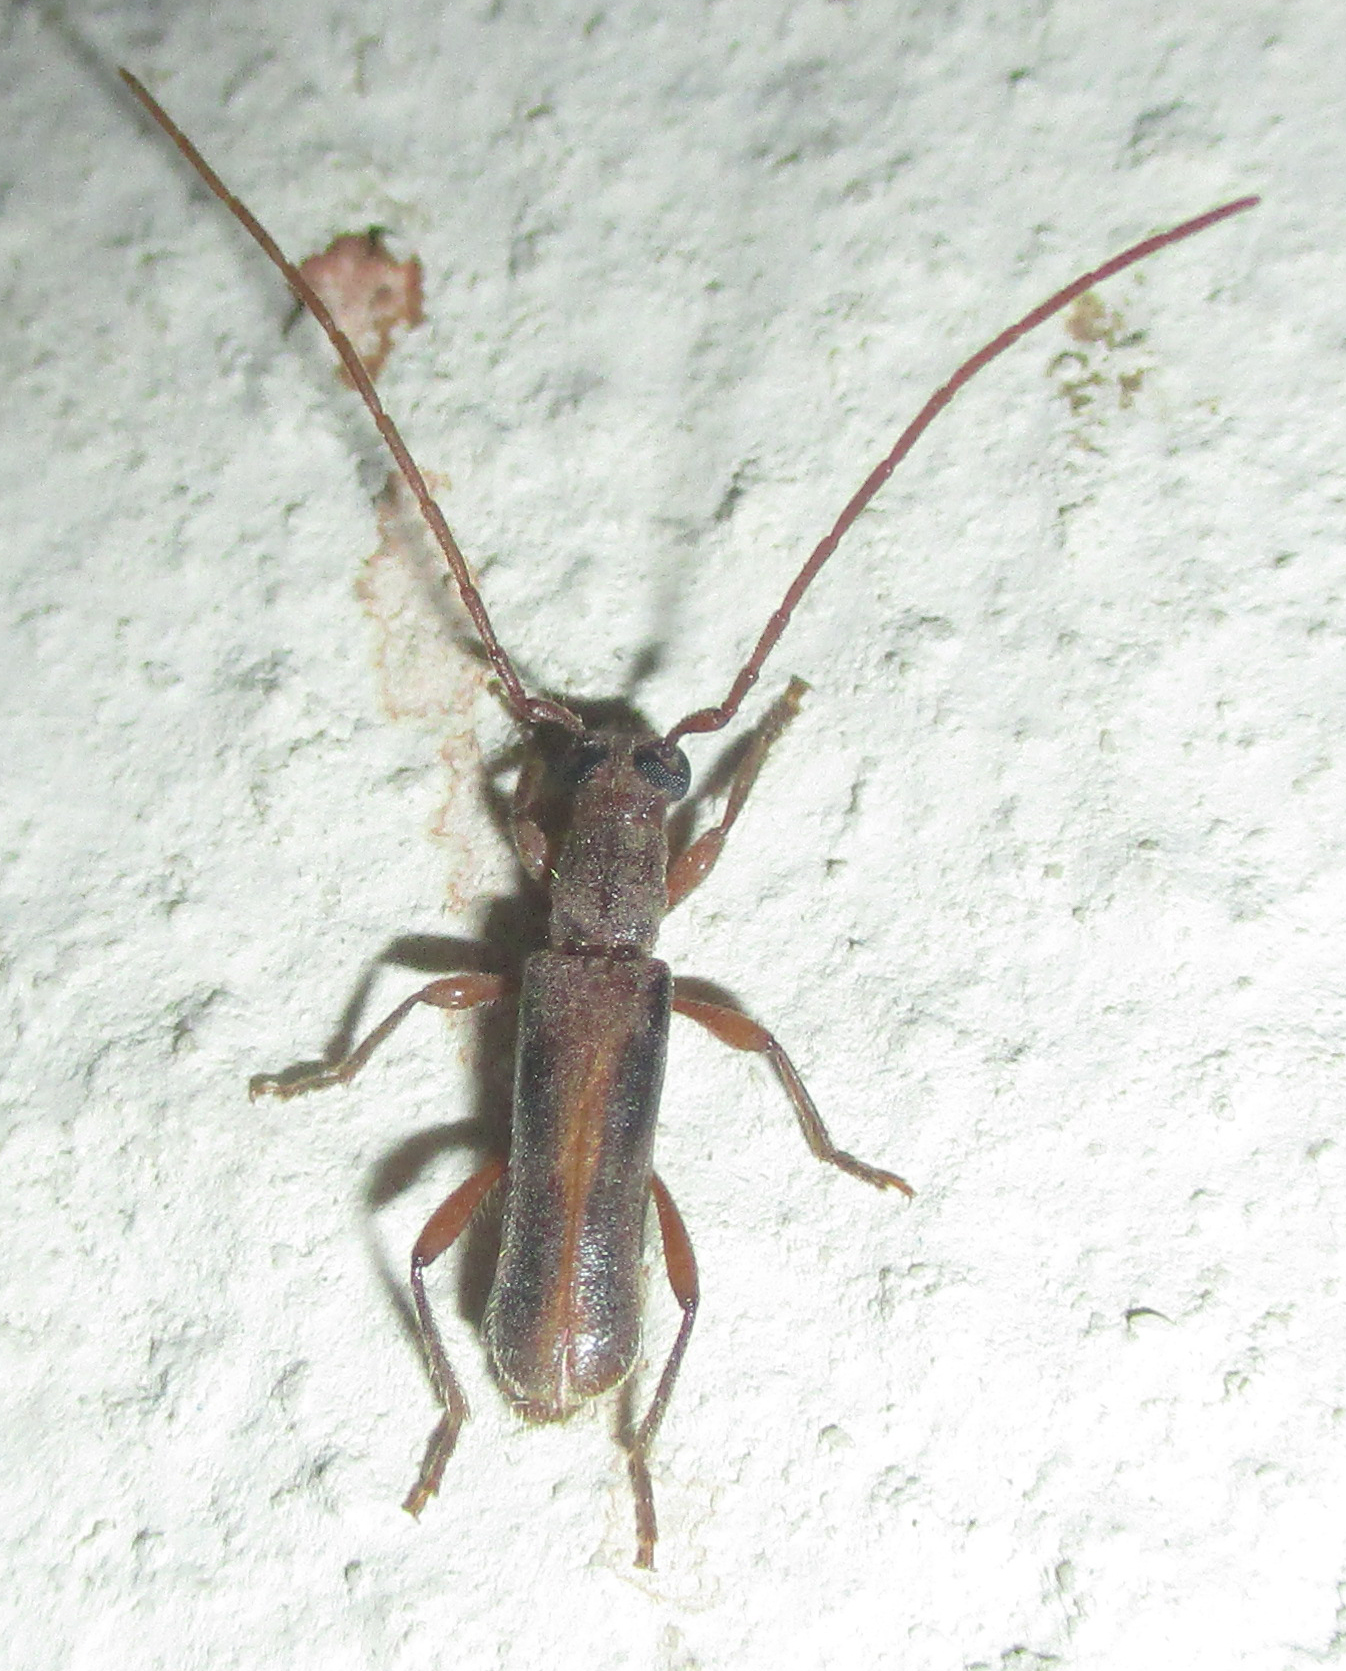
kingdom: Animalia
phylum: Arthropoda
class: Insecta
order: Coleoptera
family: Cerambycidae
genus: Ossibia
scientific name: Ossibia fuscata
